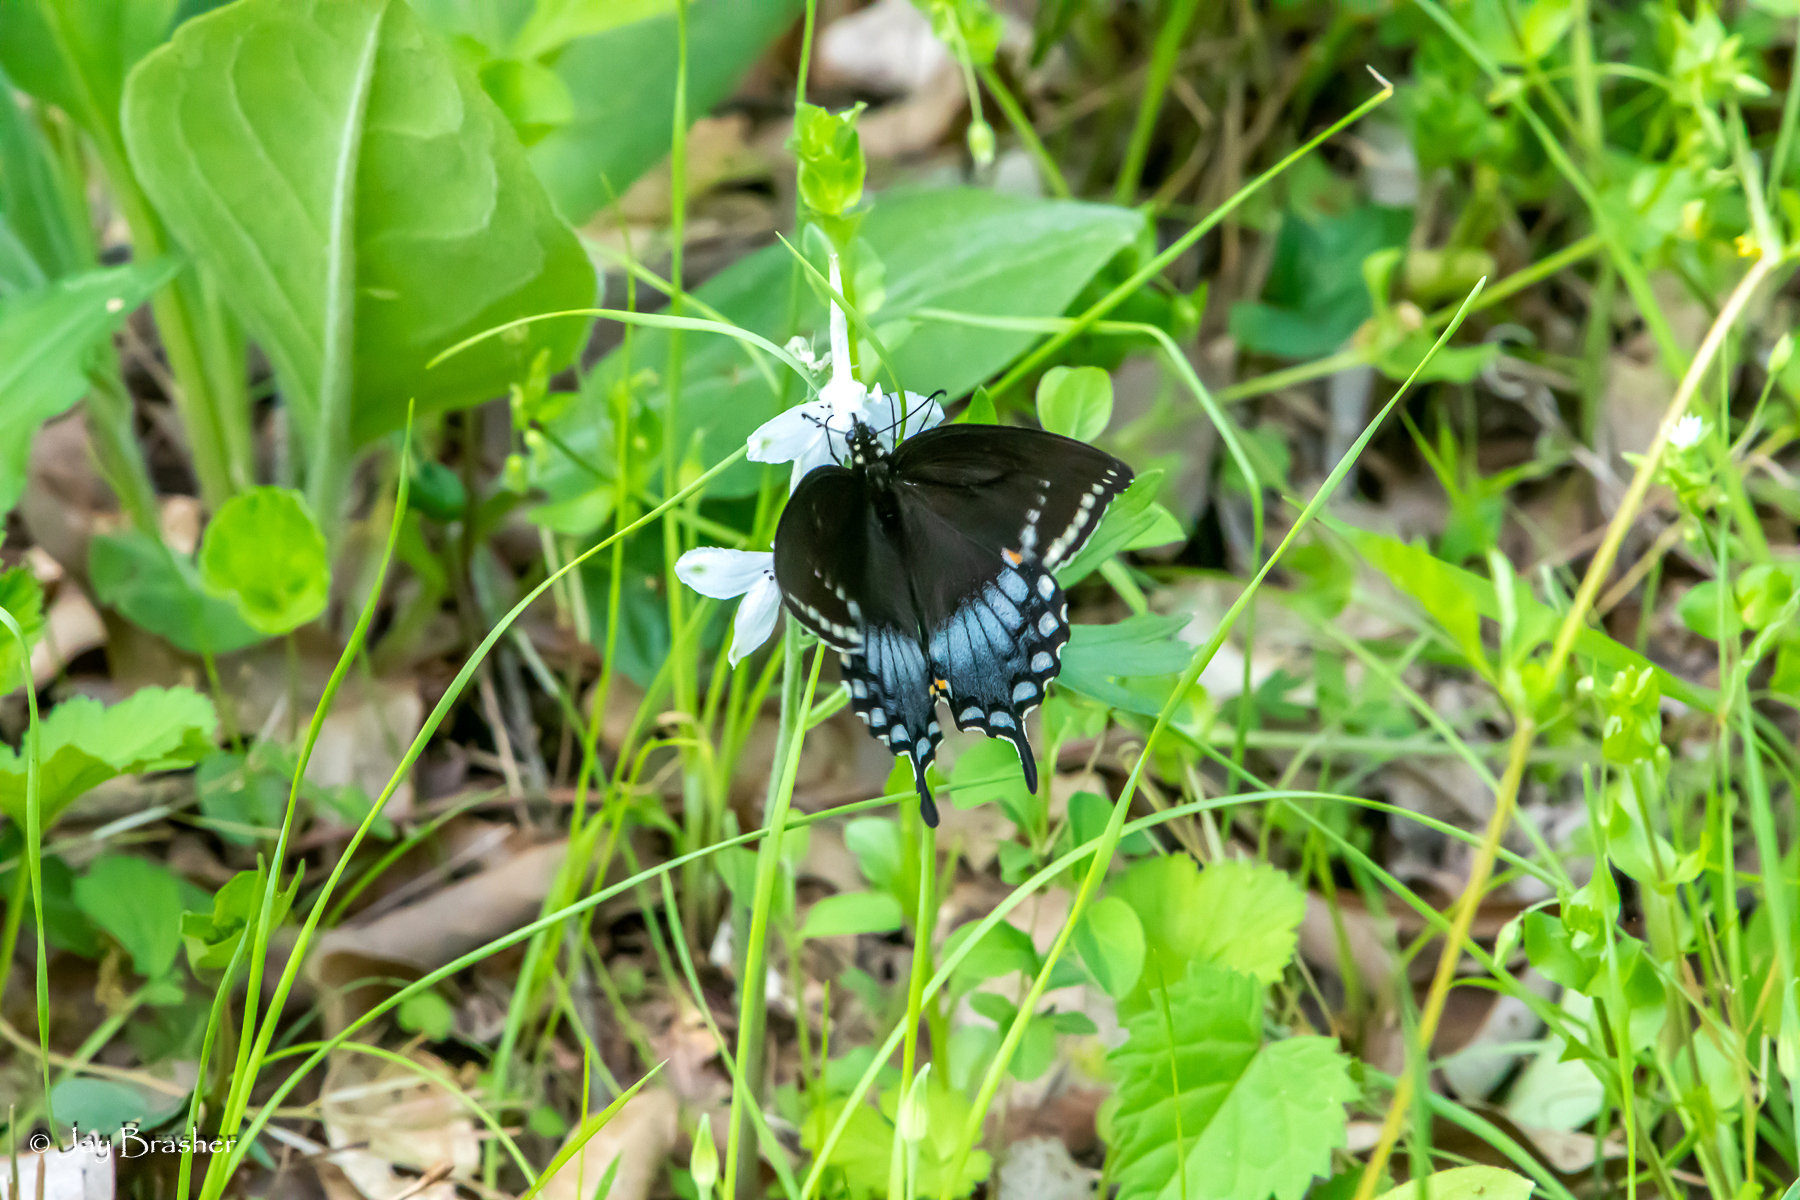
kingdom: Animalia
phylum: Arthropoda
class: Insecta
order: Lepidoptera
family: Papilionidae
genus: Papilio
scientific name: Papilio troilus
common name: Spicebush swallowtail
